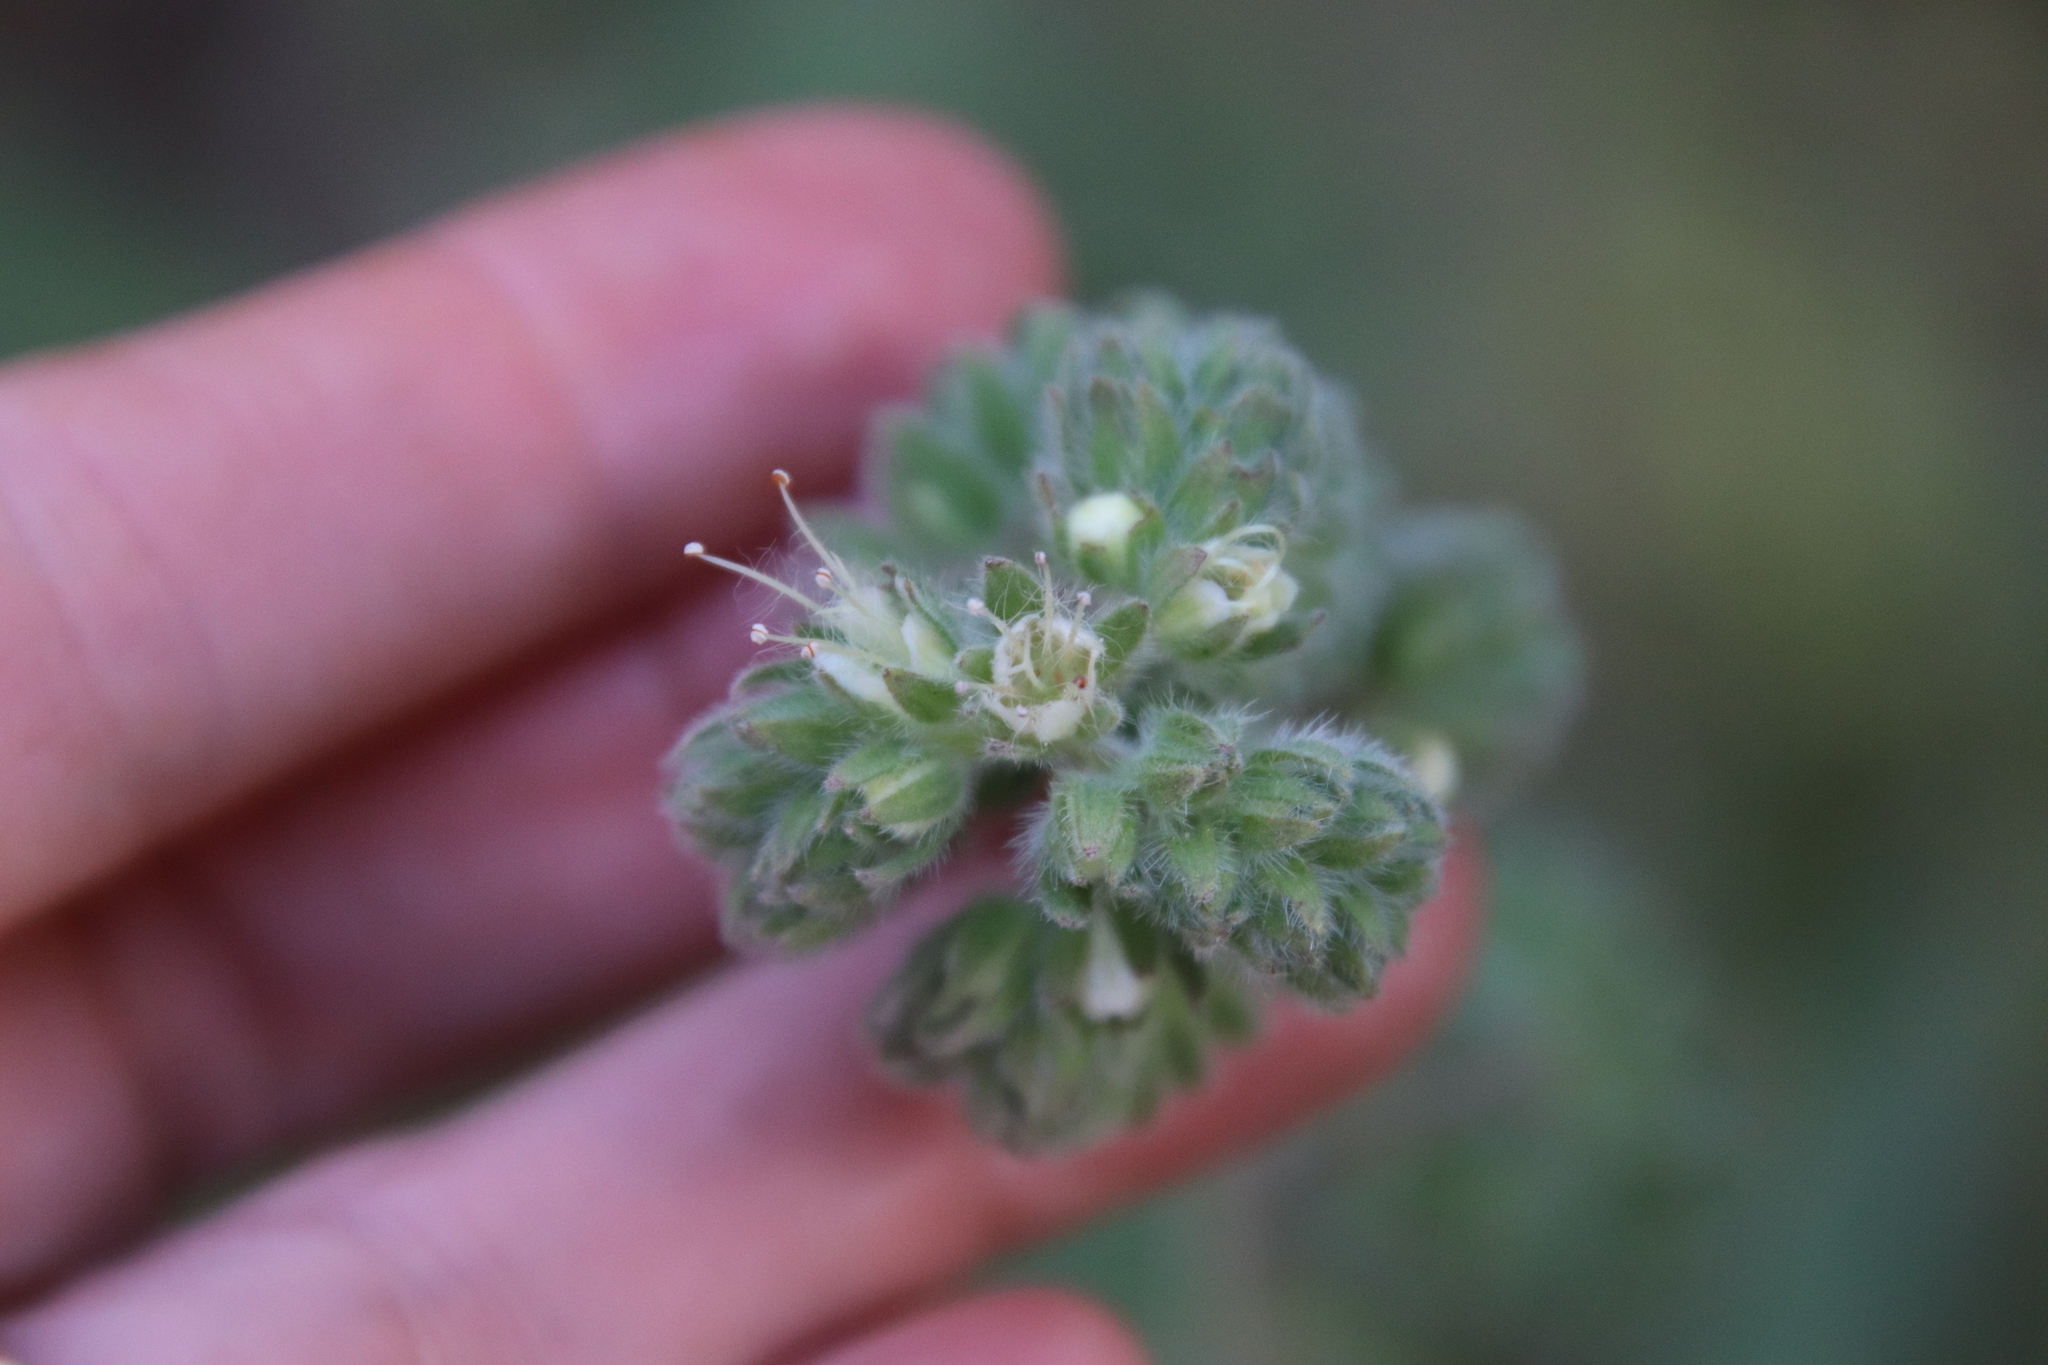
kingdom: Plantae
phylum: Tracheophyta
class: Magnoliopsida
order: Boraginales
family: Hydrophyllaceae
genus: Phacelia
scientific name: Phacelia imbricata
